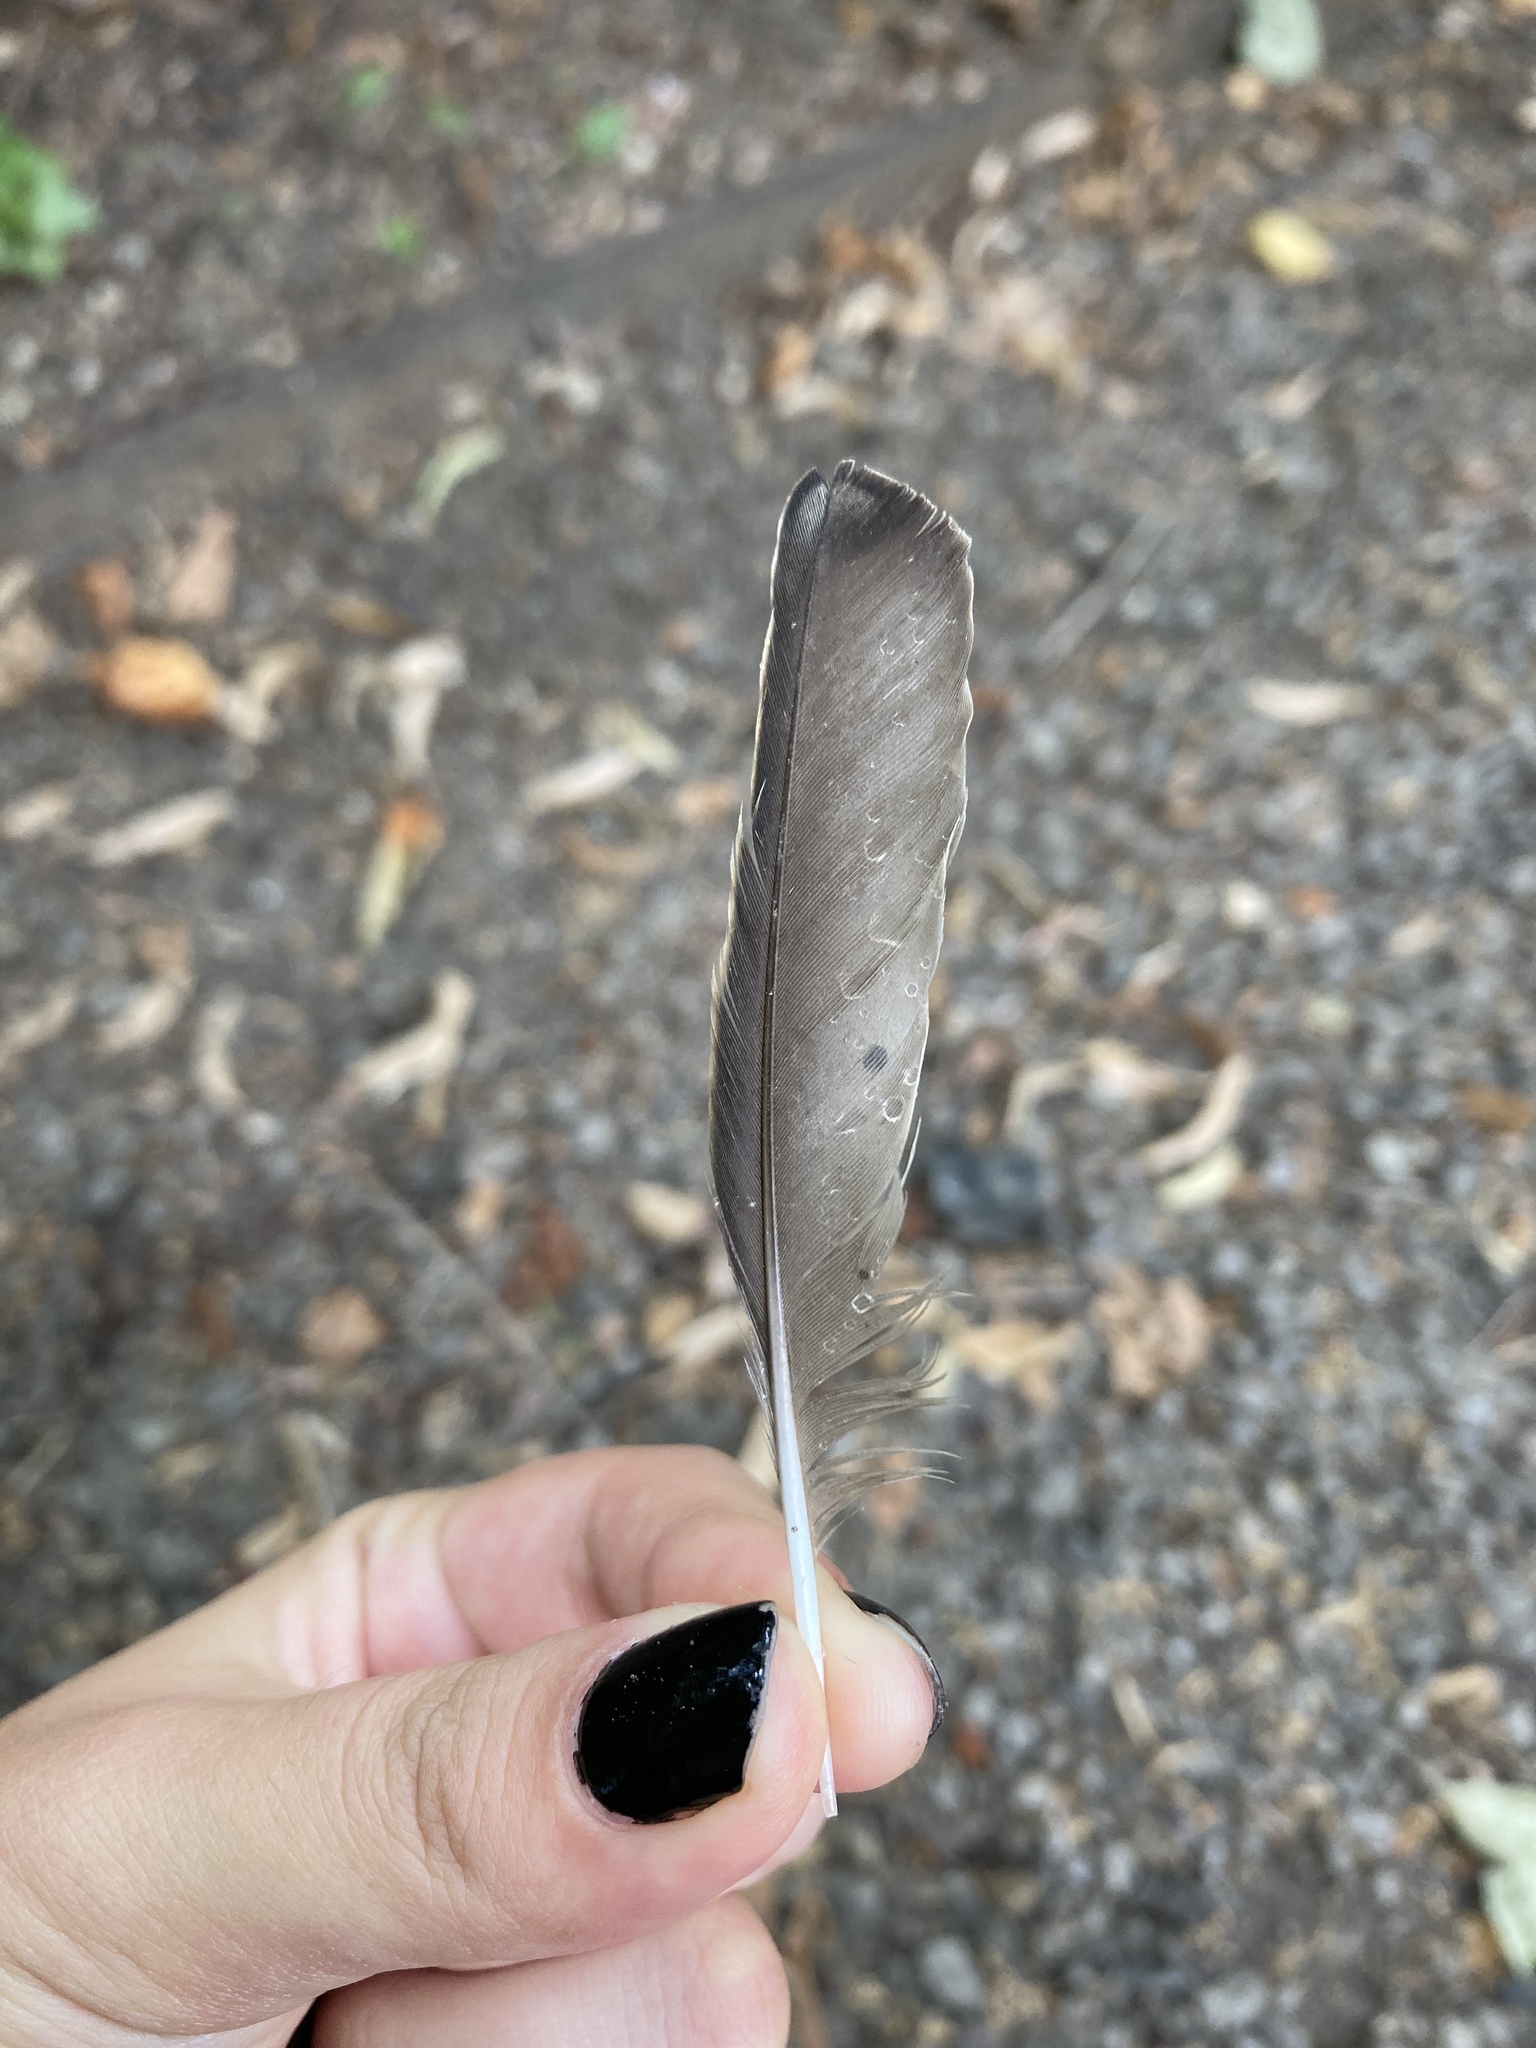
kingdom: Animalia
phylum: Chordata
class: Aves
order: Passeriformes
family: Sturnidae
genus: Sturnus
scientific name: Sturnus vulgaris
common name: Common starling
